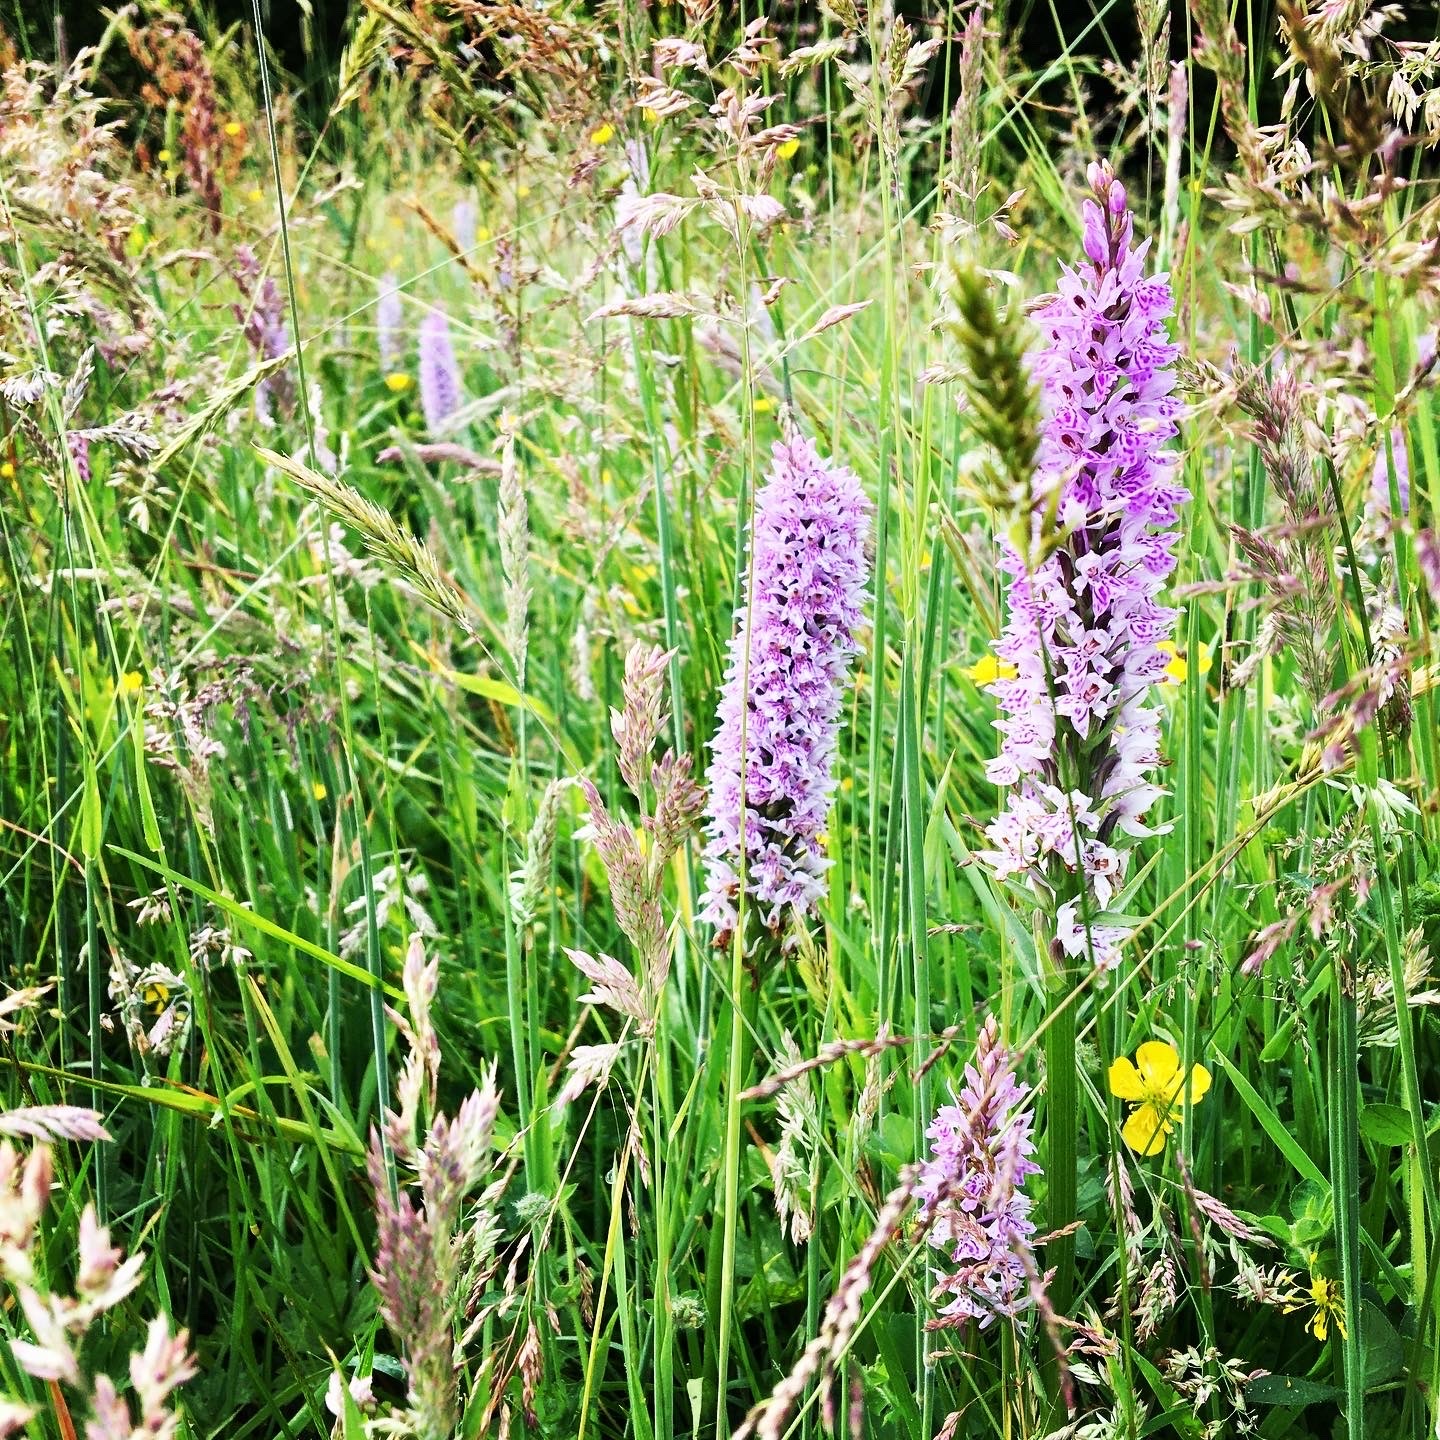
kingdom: Plantae
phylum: Tracheophyta
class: Liliopsida
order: Asparagales
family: Orchidaceae
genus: Dactylorhiza
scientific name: Dactylorhiza maculata
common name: Heath spotted-orchid
